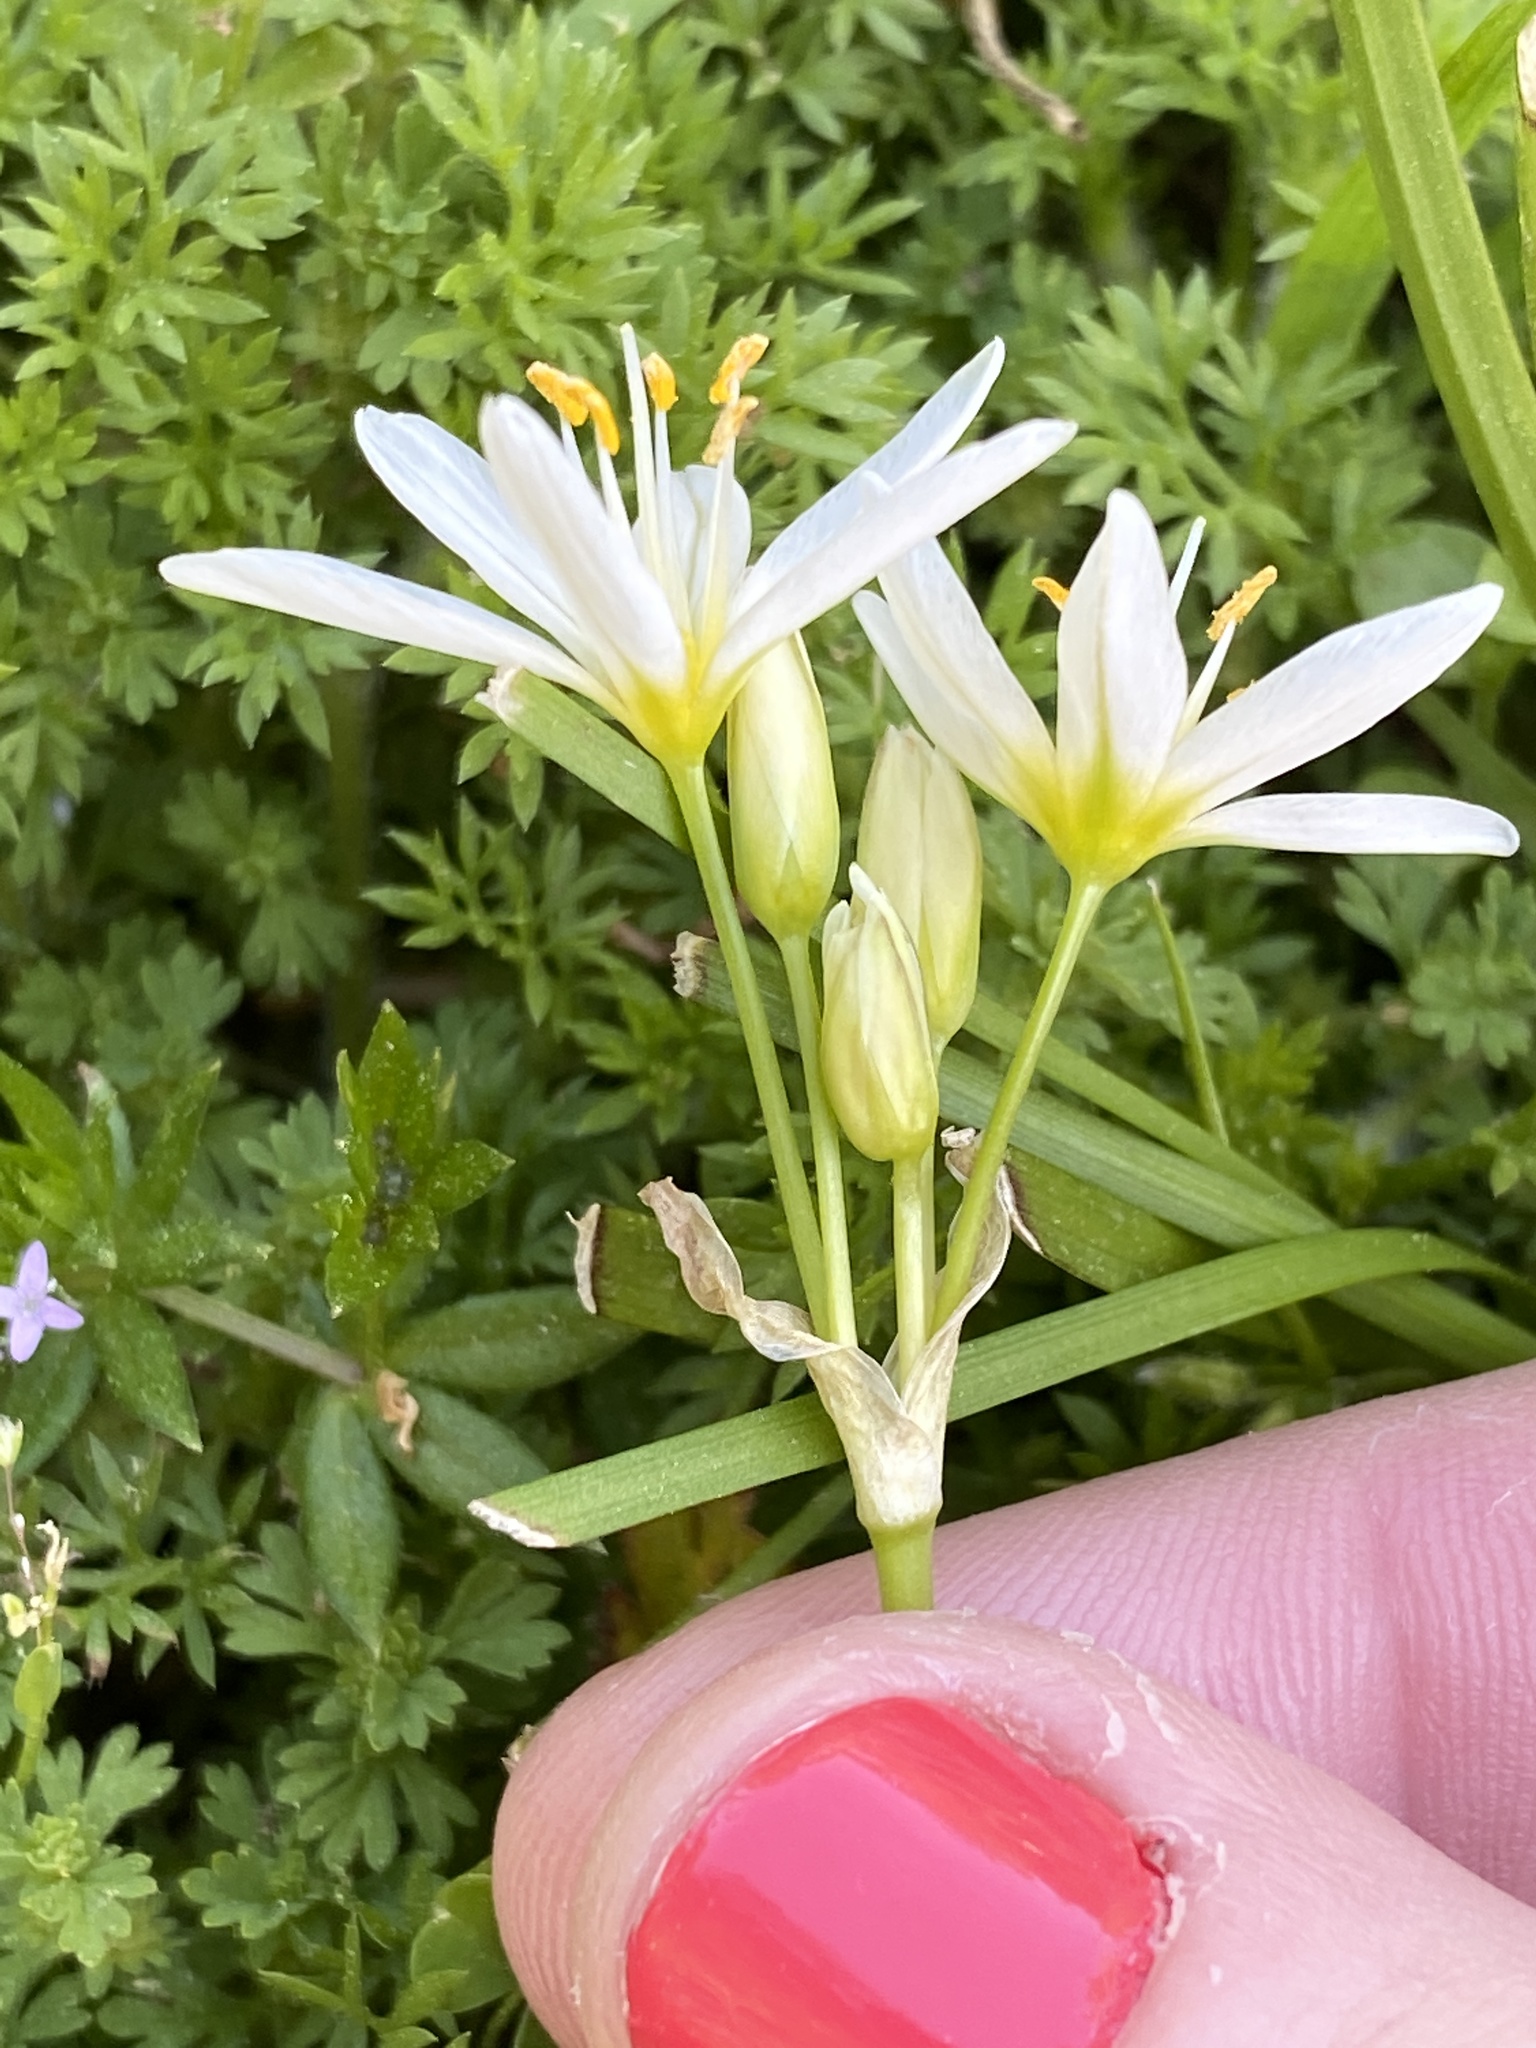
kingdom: Plantae
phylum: Tracheophyta
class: Liliopsida
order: Asparagales
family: Amaryllidaceae
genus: Nothoscordum
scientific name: Nothoscordum bivalve
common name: Crow-poison
